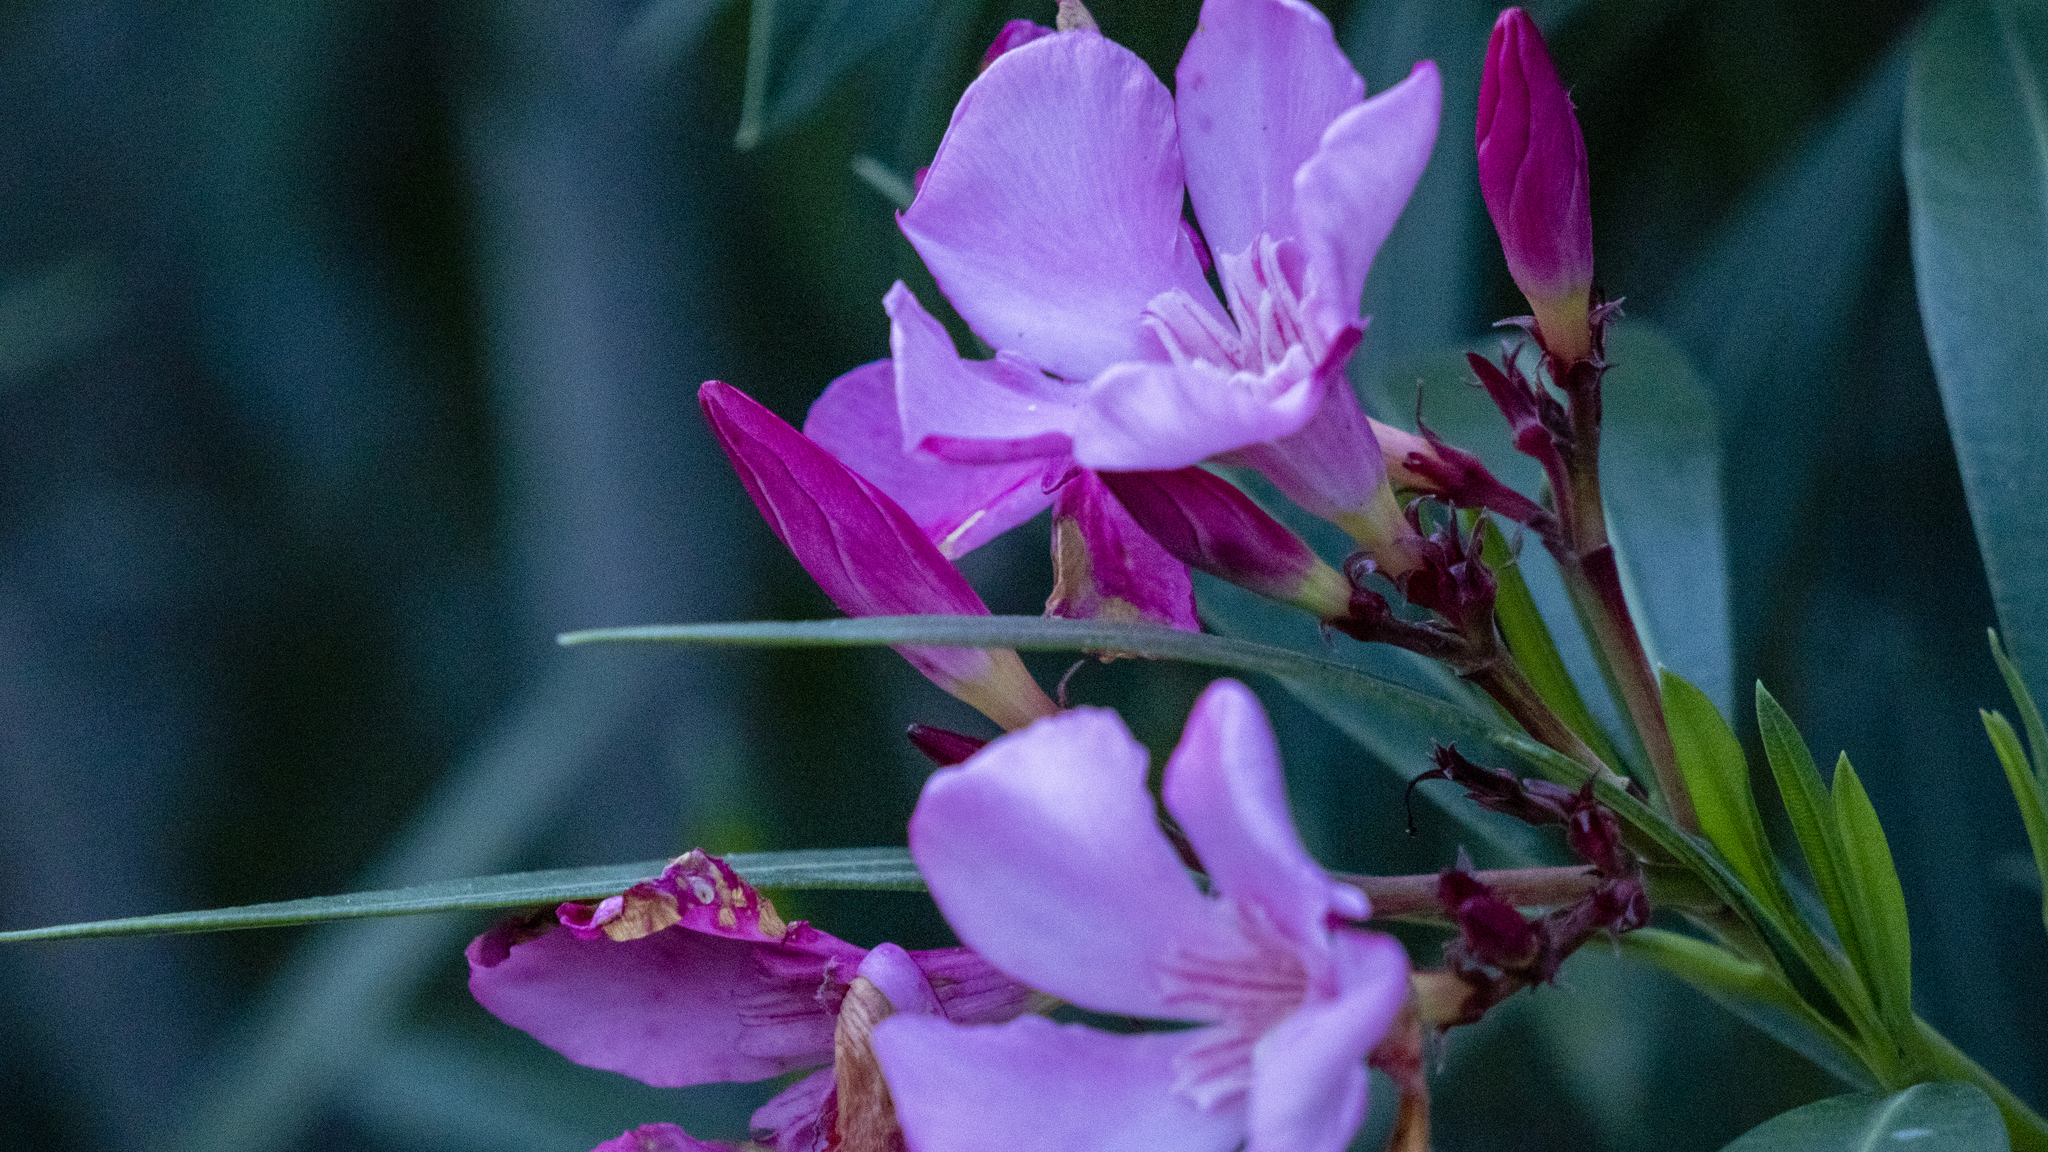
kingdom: Plantae
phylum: Tracheophyta
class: Magnoliopsida
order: Gentianales
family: Apocynaceae
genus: Nerium
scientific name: Nerium oleander
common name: Oleander
